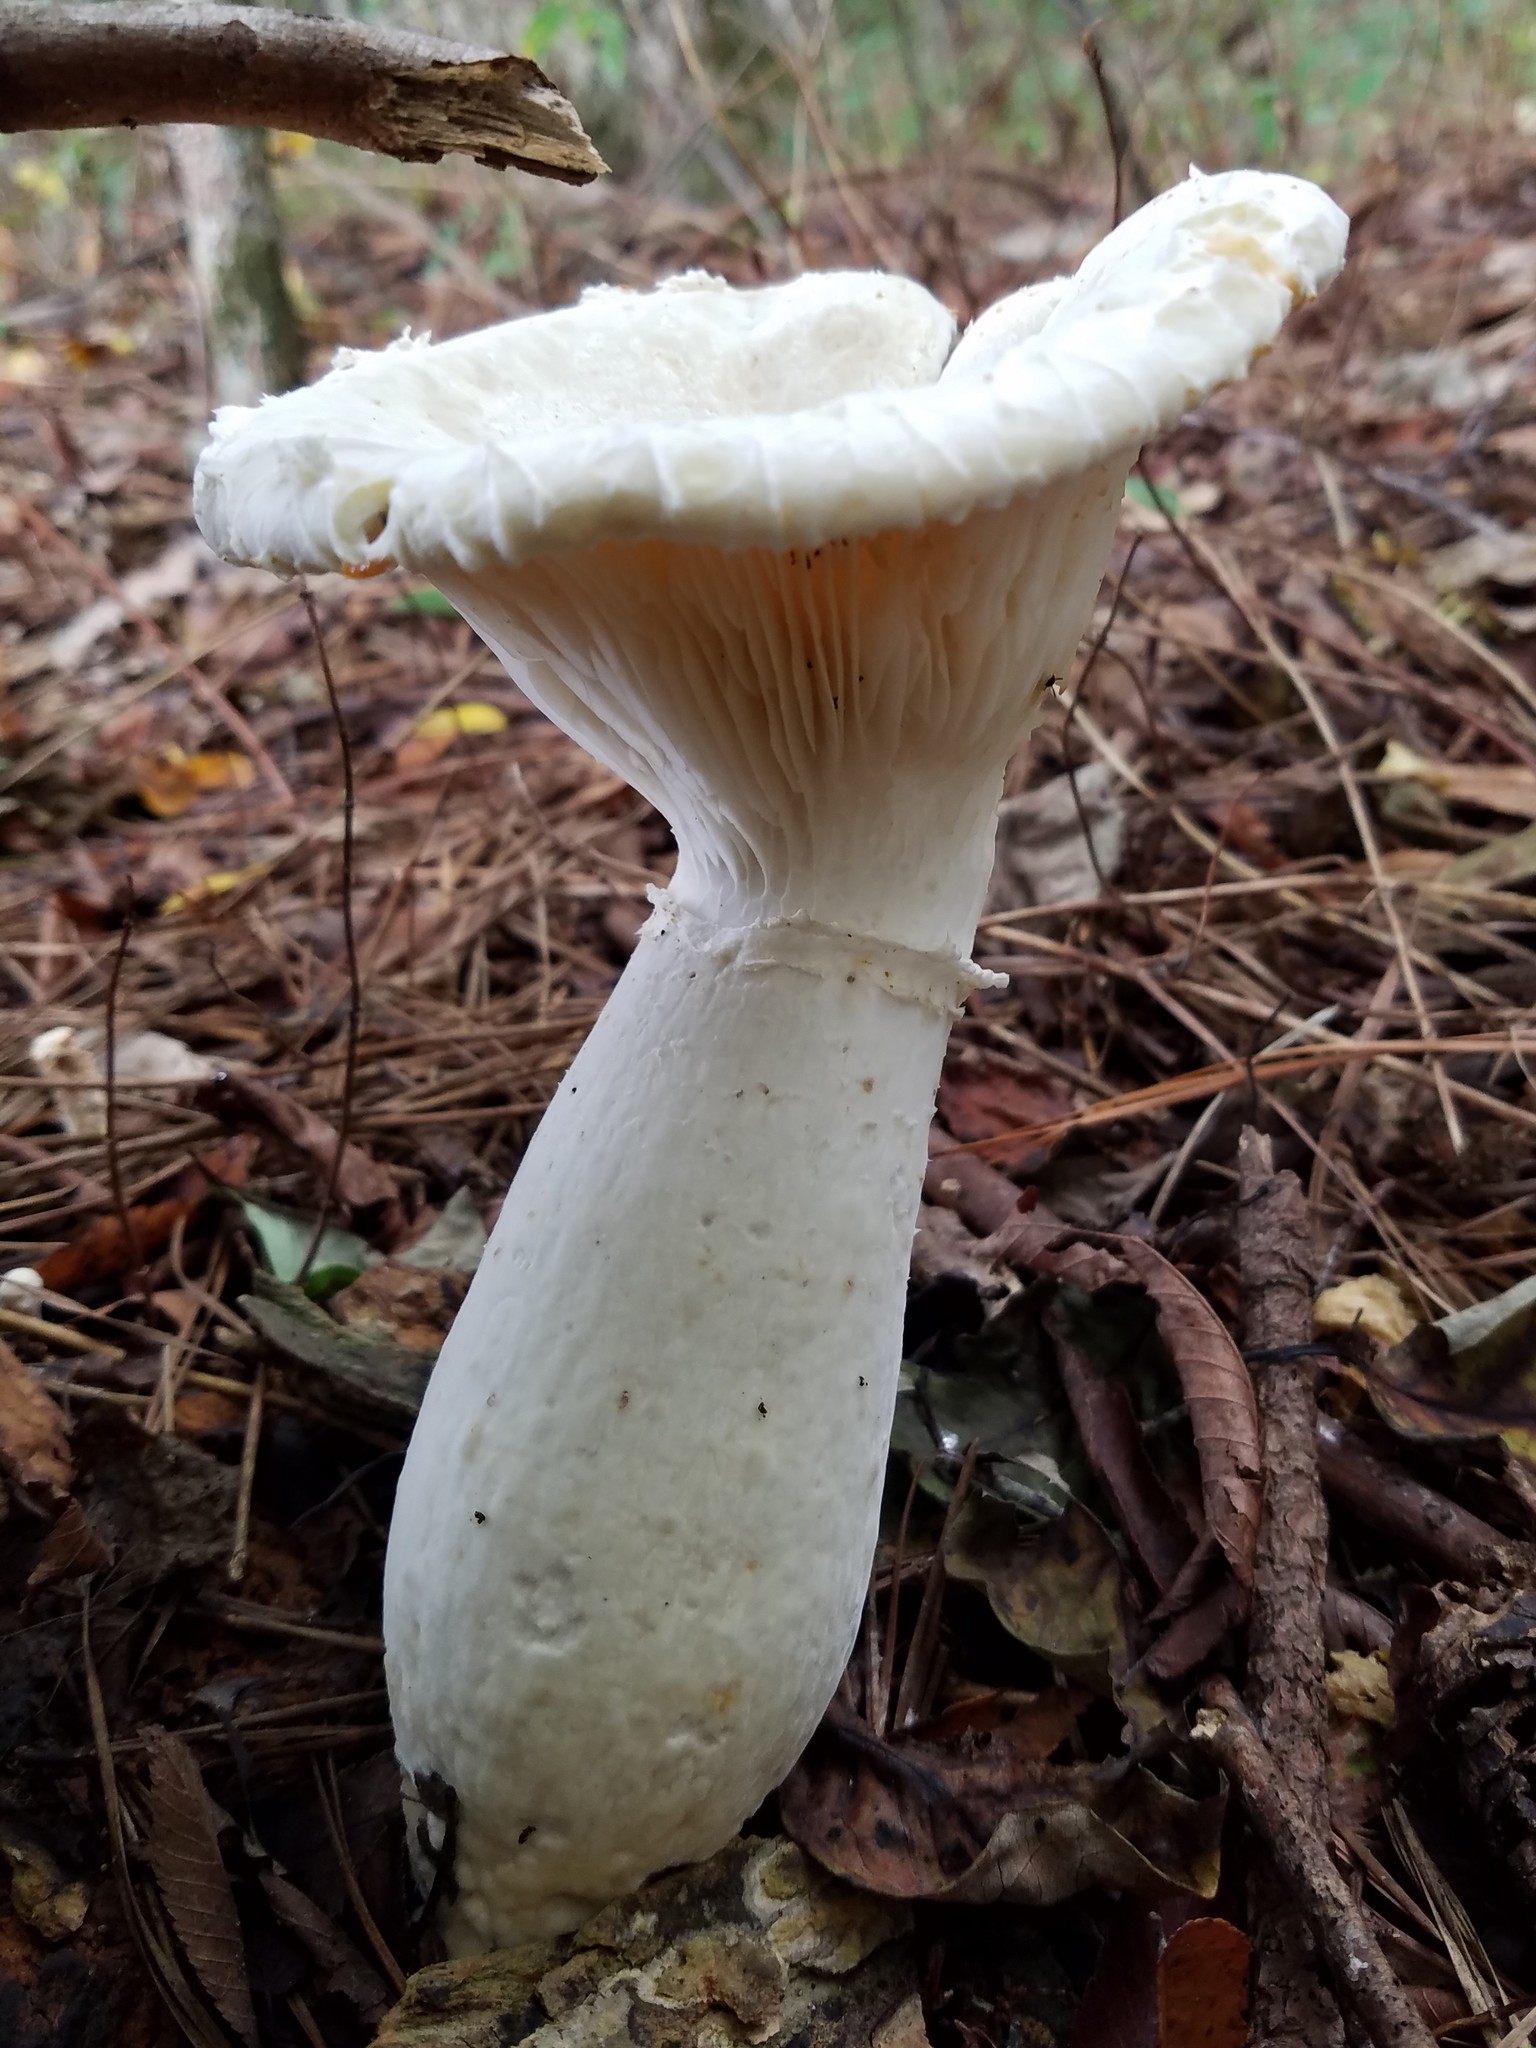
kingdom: Fungi
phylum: Basidiomycota
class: Agaricomycetes
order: Polyporales
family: Polyporaceae
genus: Lentinus
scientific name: Lentinus levis
